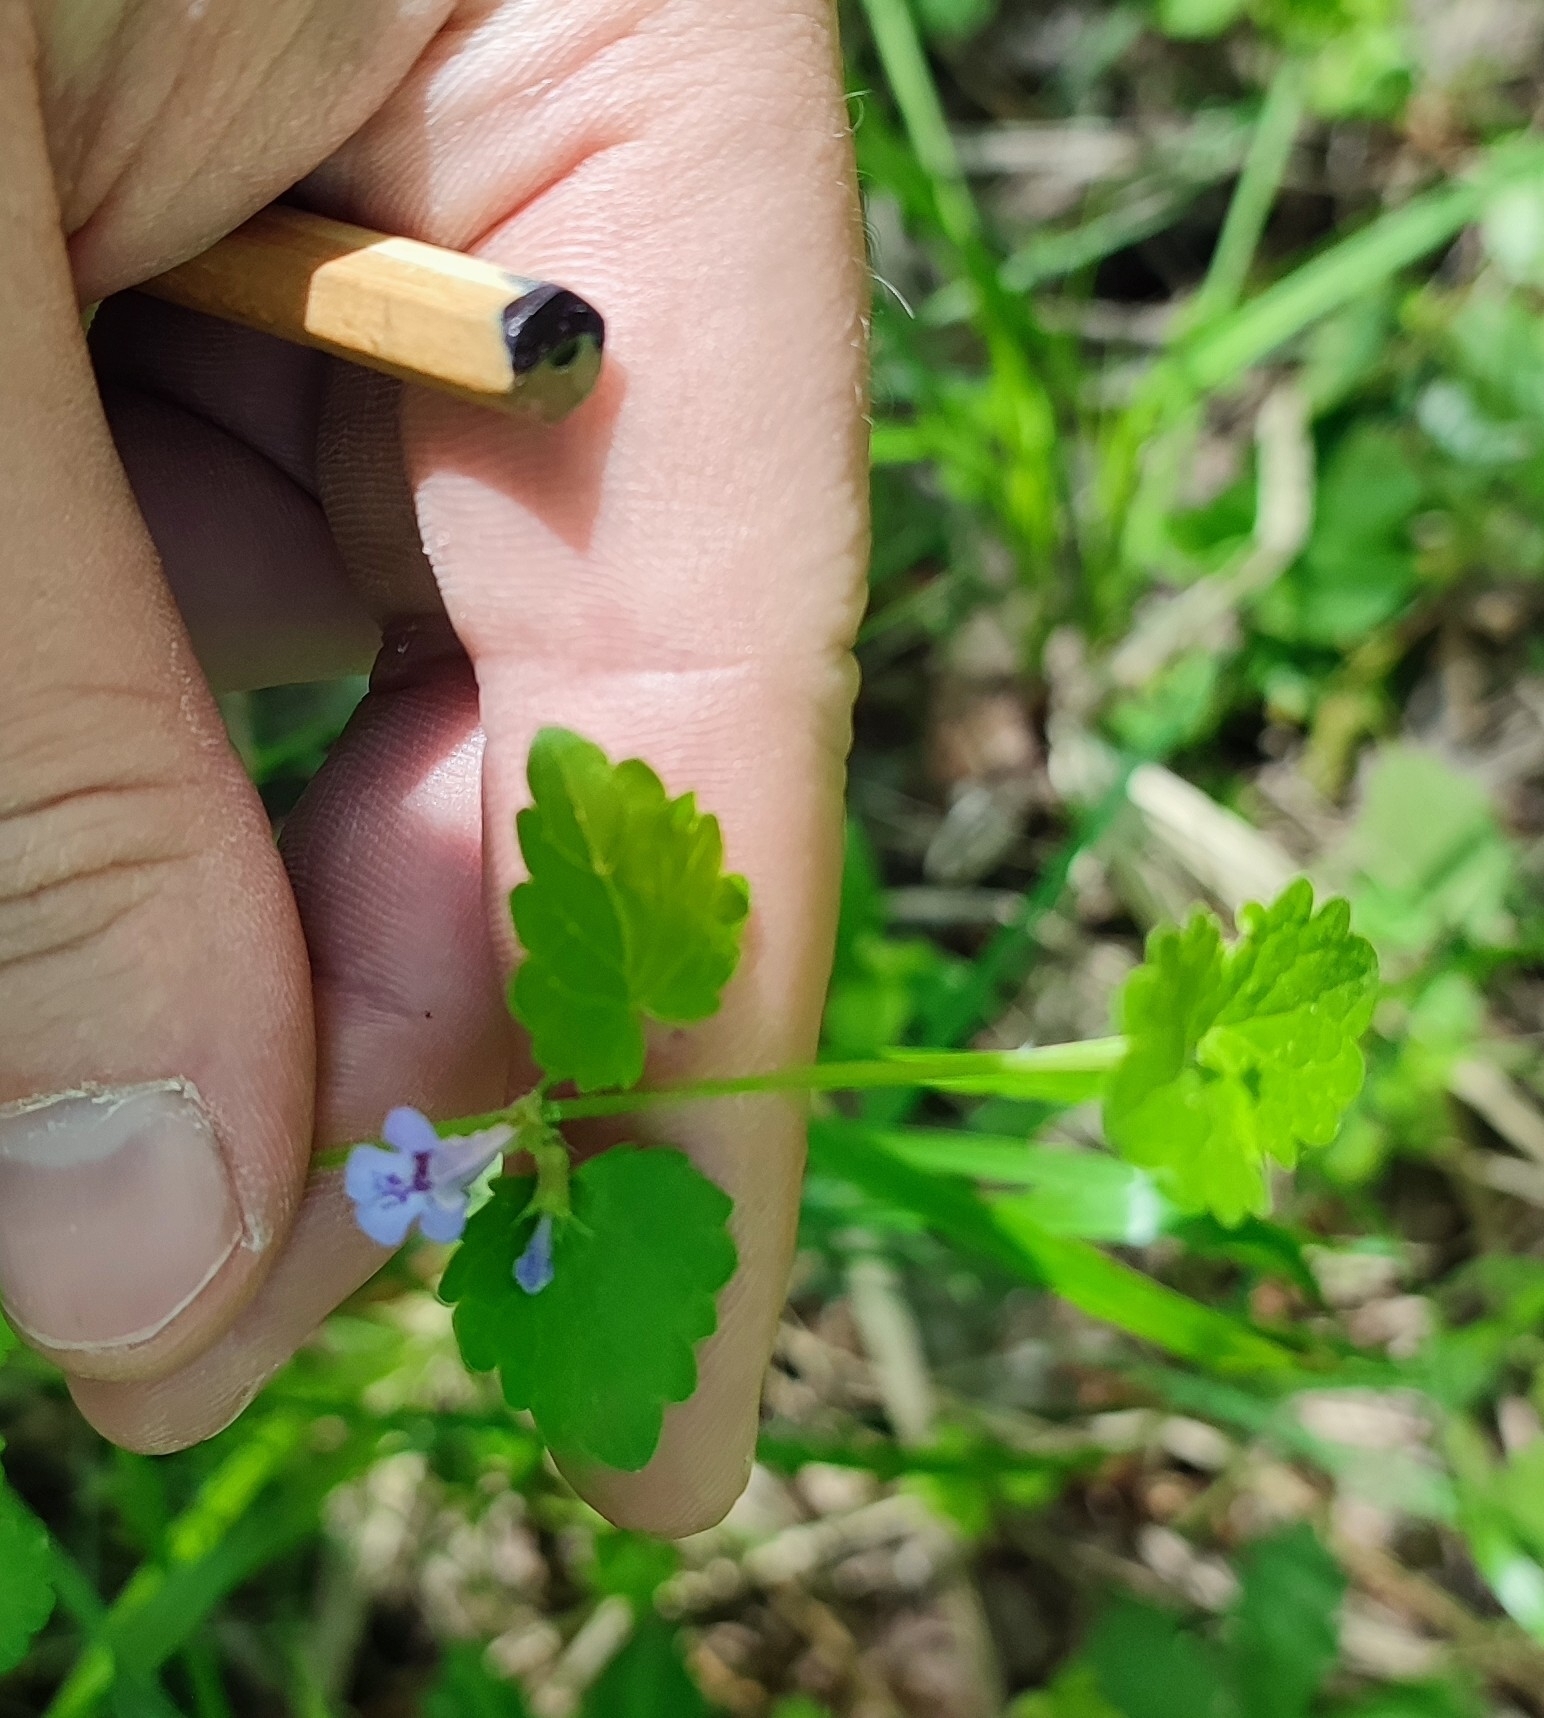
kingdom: Plantae
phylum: Tracheophyta
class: Magnoliopsida
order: Lamiales
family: Lamiaceae
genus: Glechoma
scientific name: Glechoma hederacea
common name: Ground ivy
